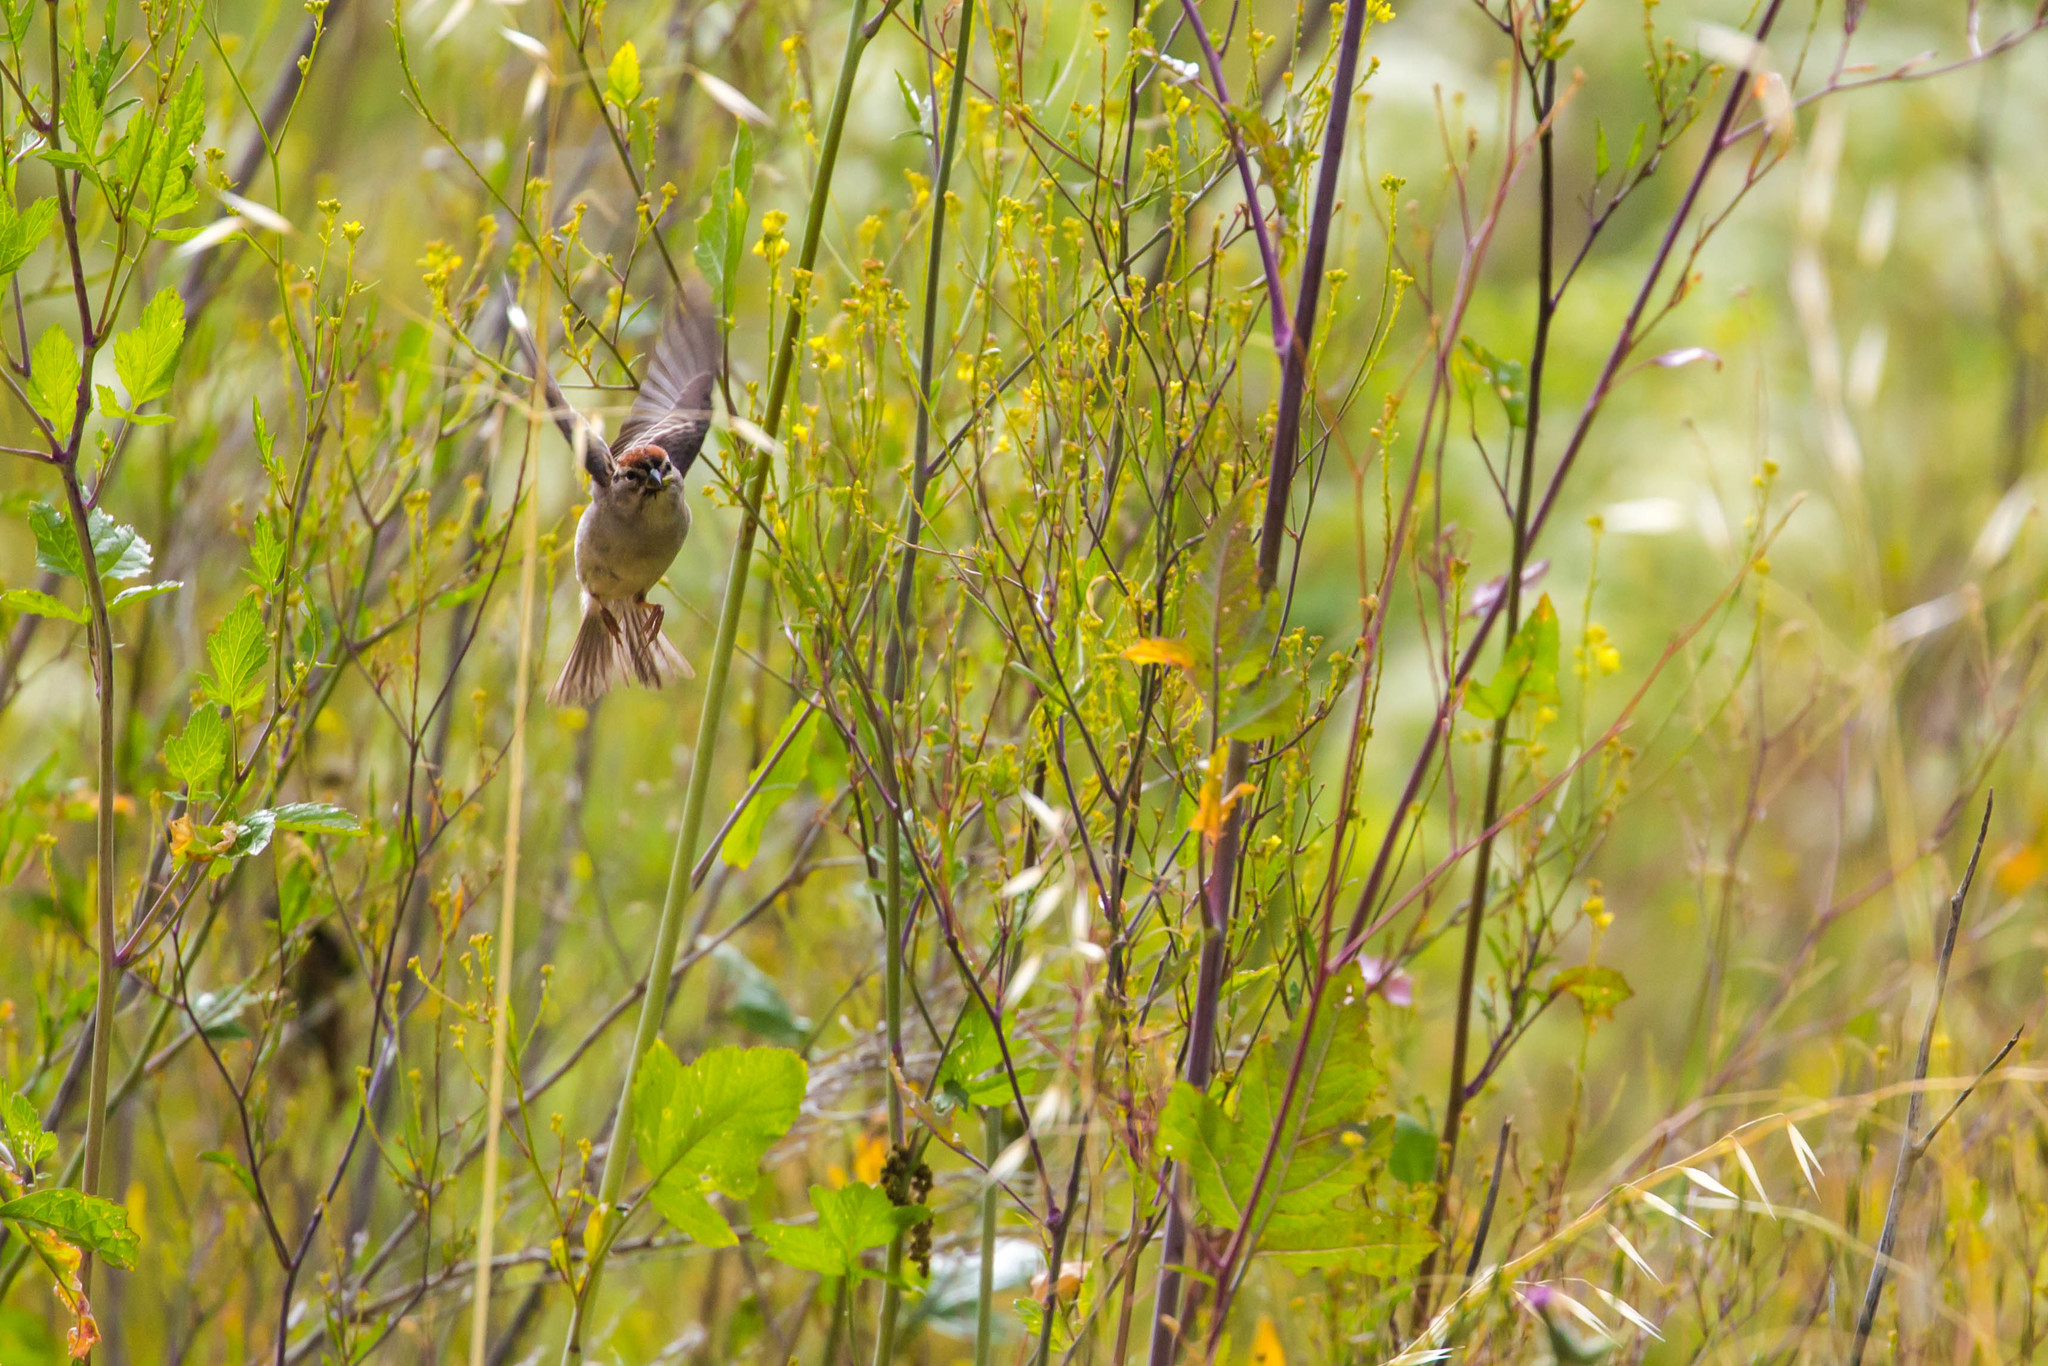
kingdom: Animalia
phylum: Chordata
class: Aves
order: Passeriformes
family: Passerellidae
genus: Spizella
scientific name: Spizella passerina
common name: Chipping sparrow
